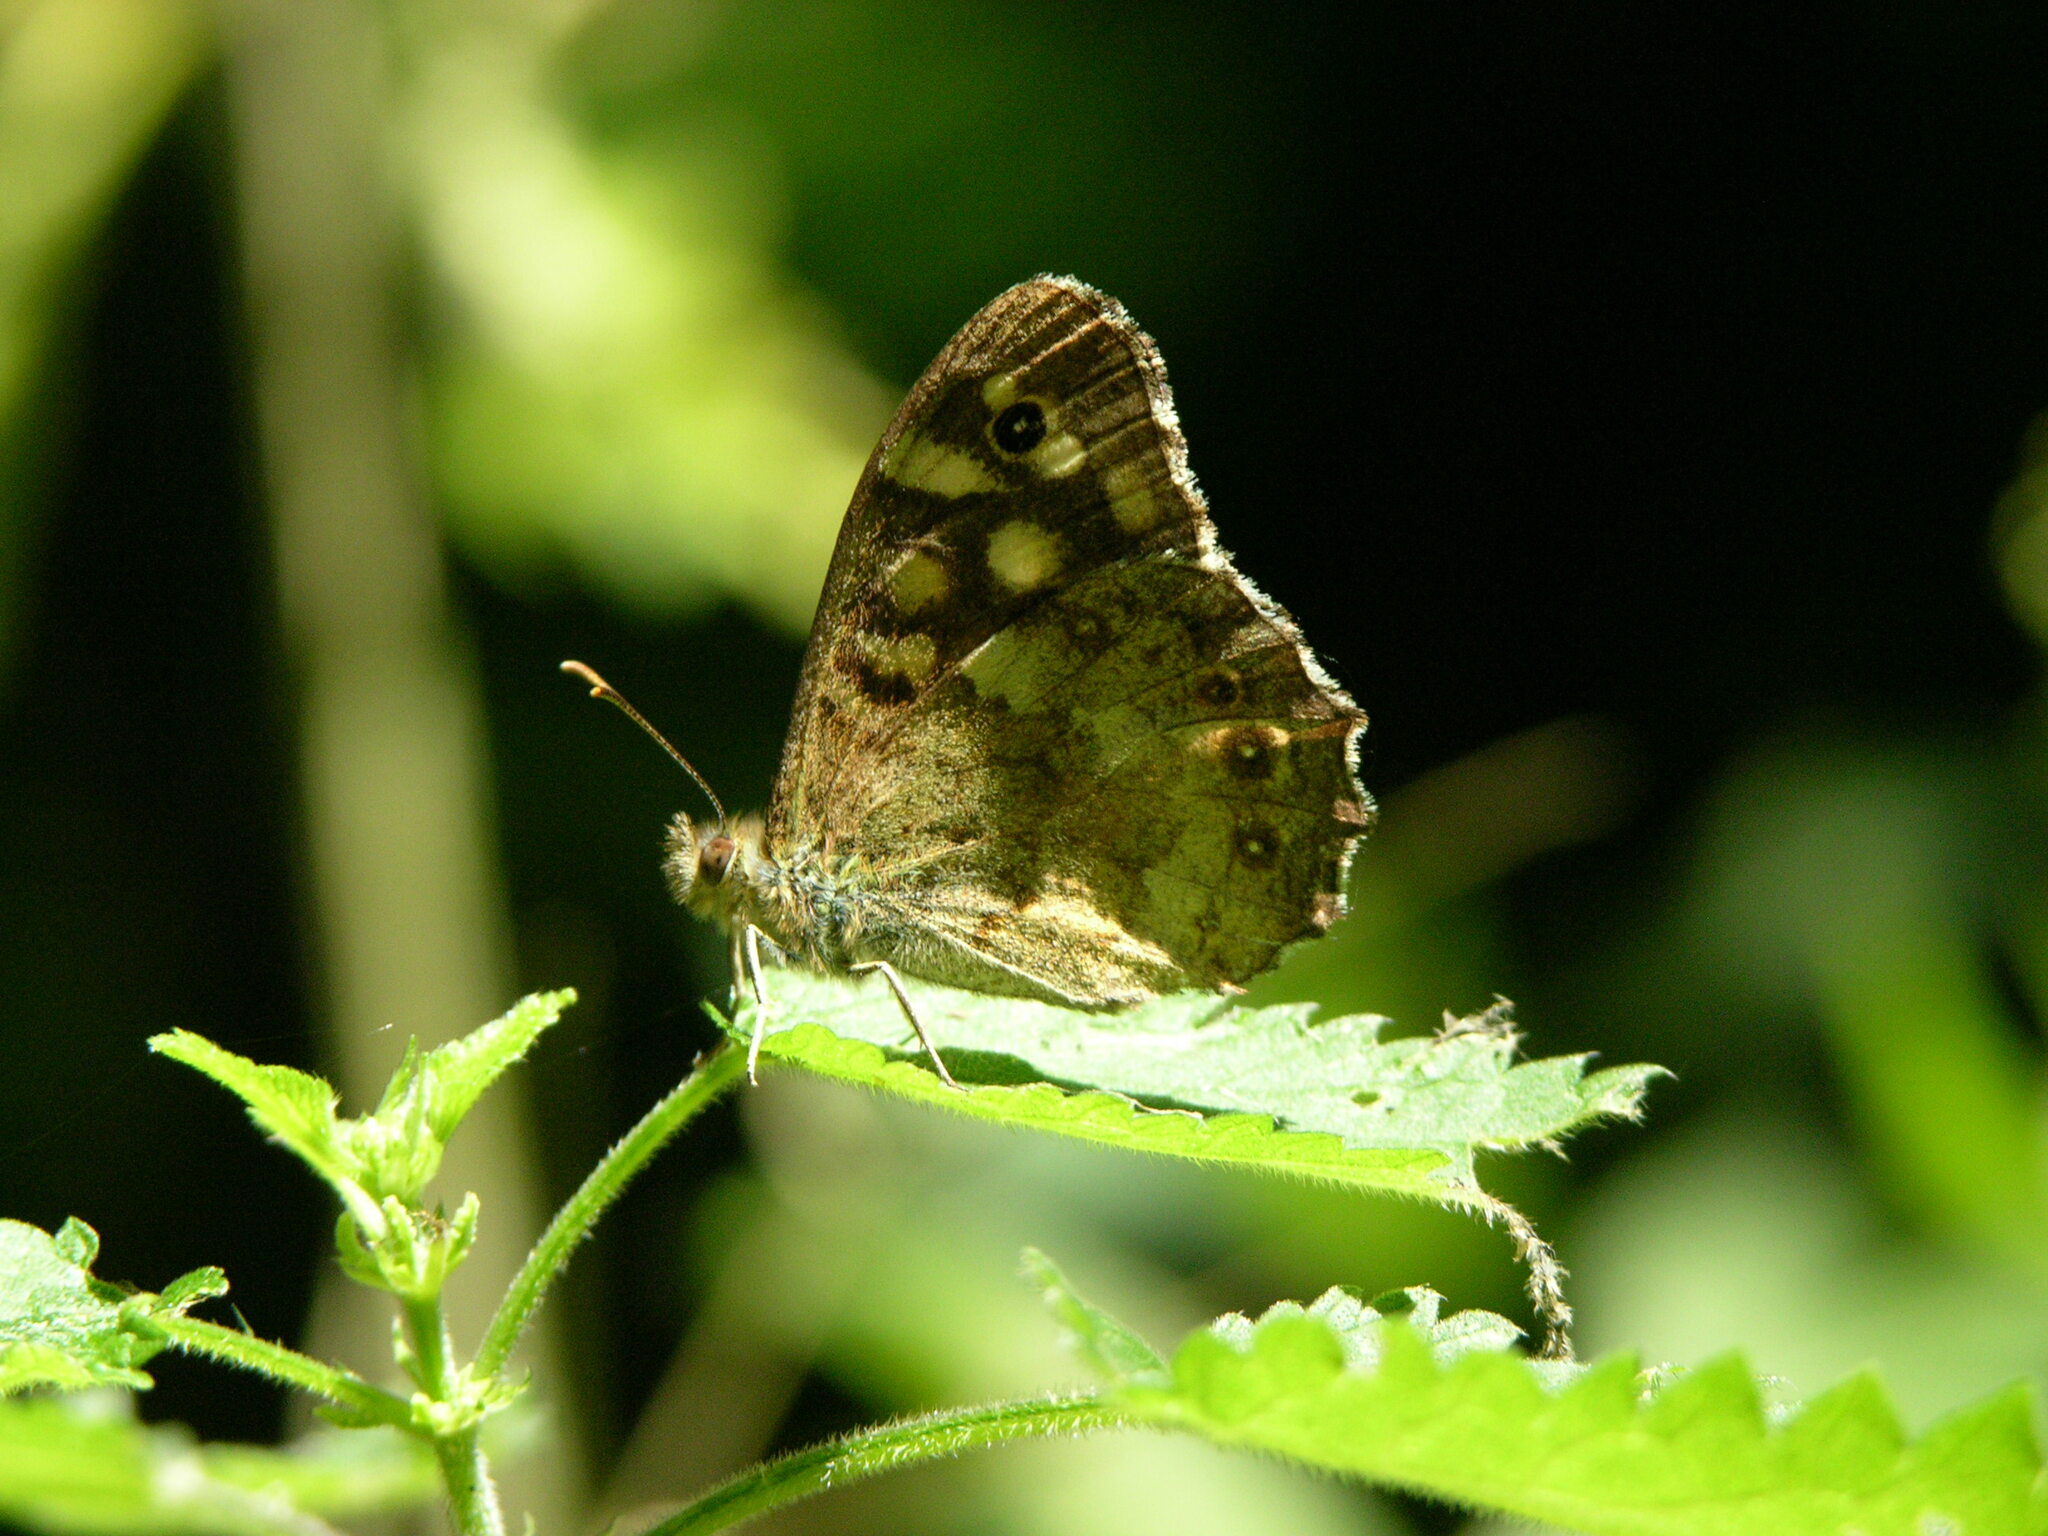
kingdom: Animalia
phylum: Arthropoda
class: Insecta
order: Lepidoptera
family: Nymphalidae
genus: Pararge
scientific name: Pararge aegeria
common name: Speckled wood
